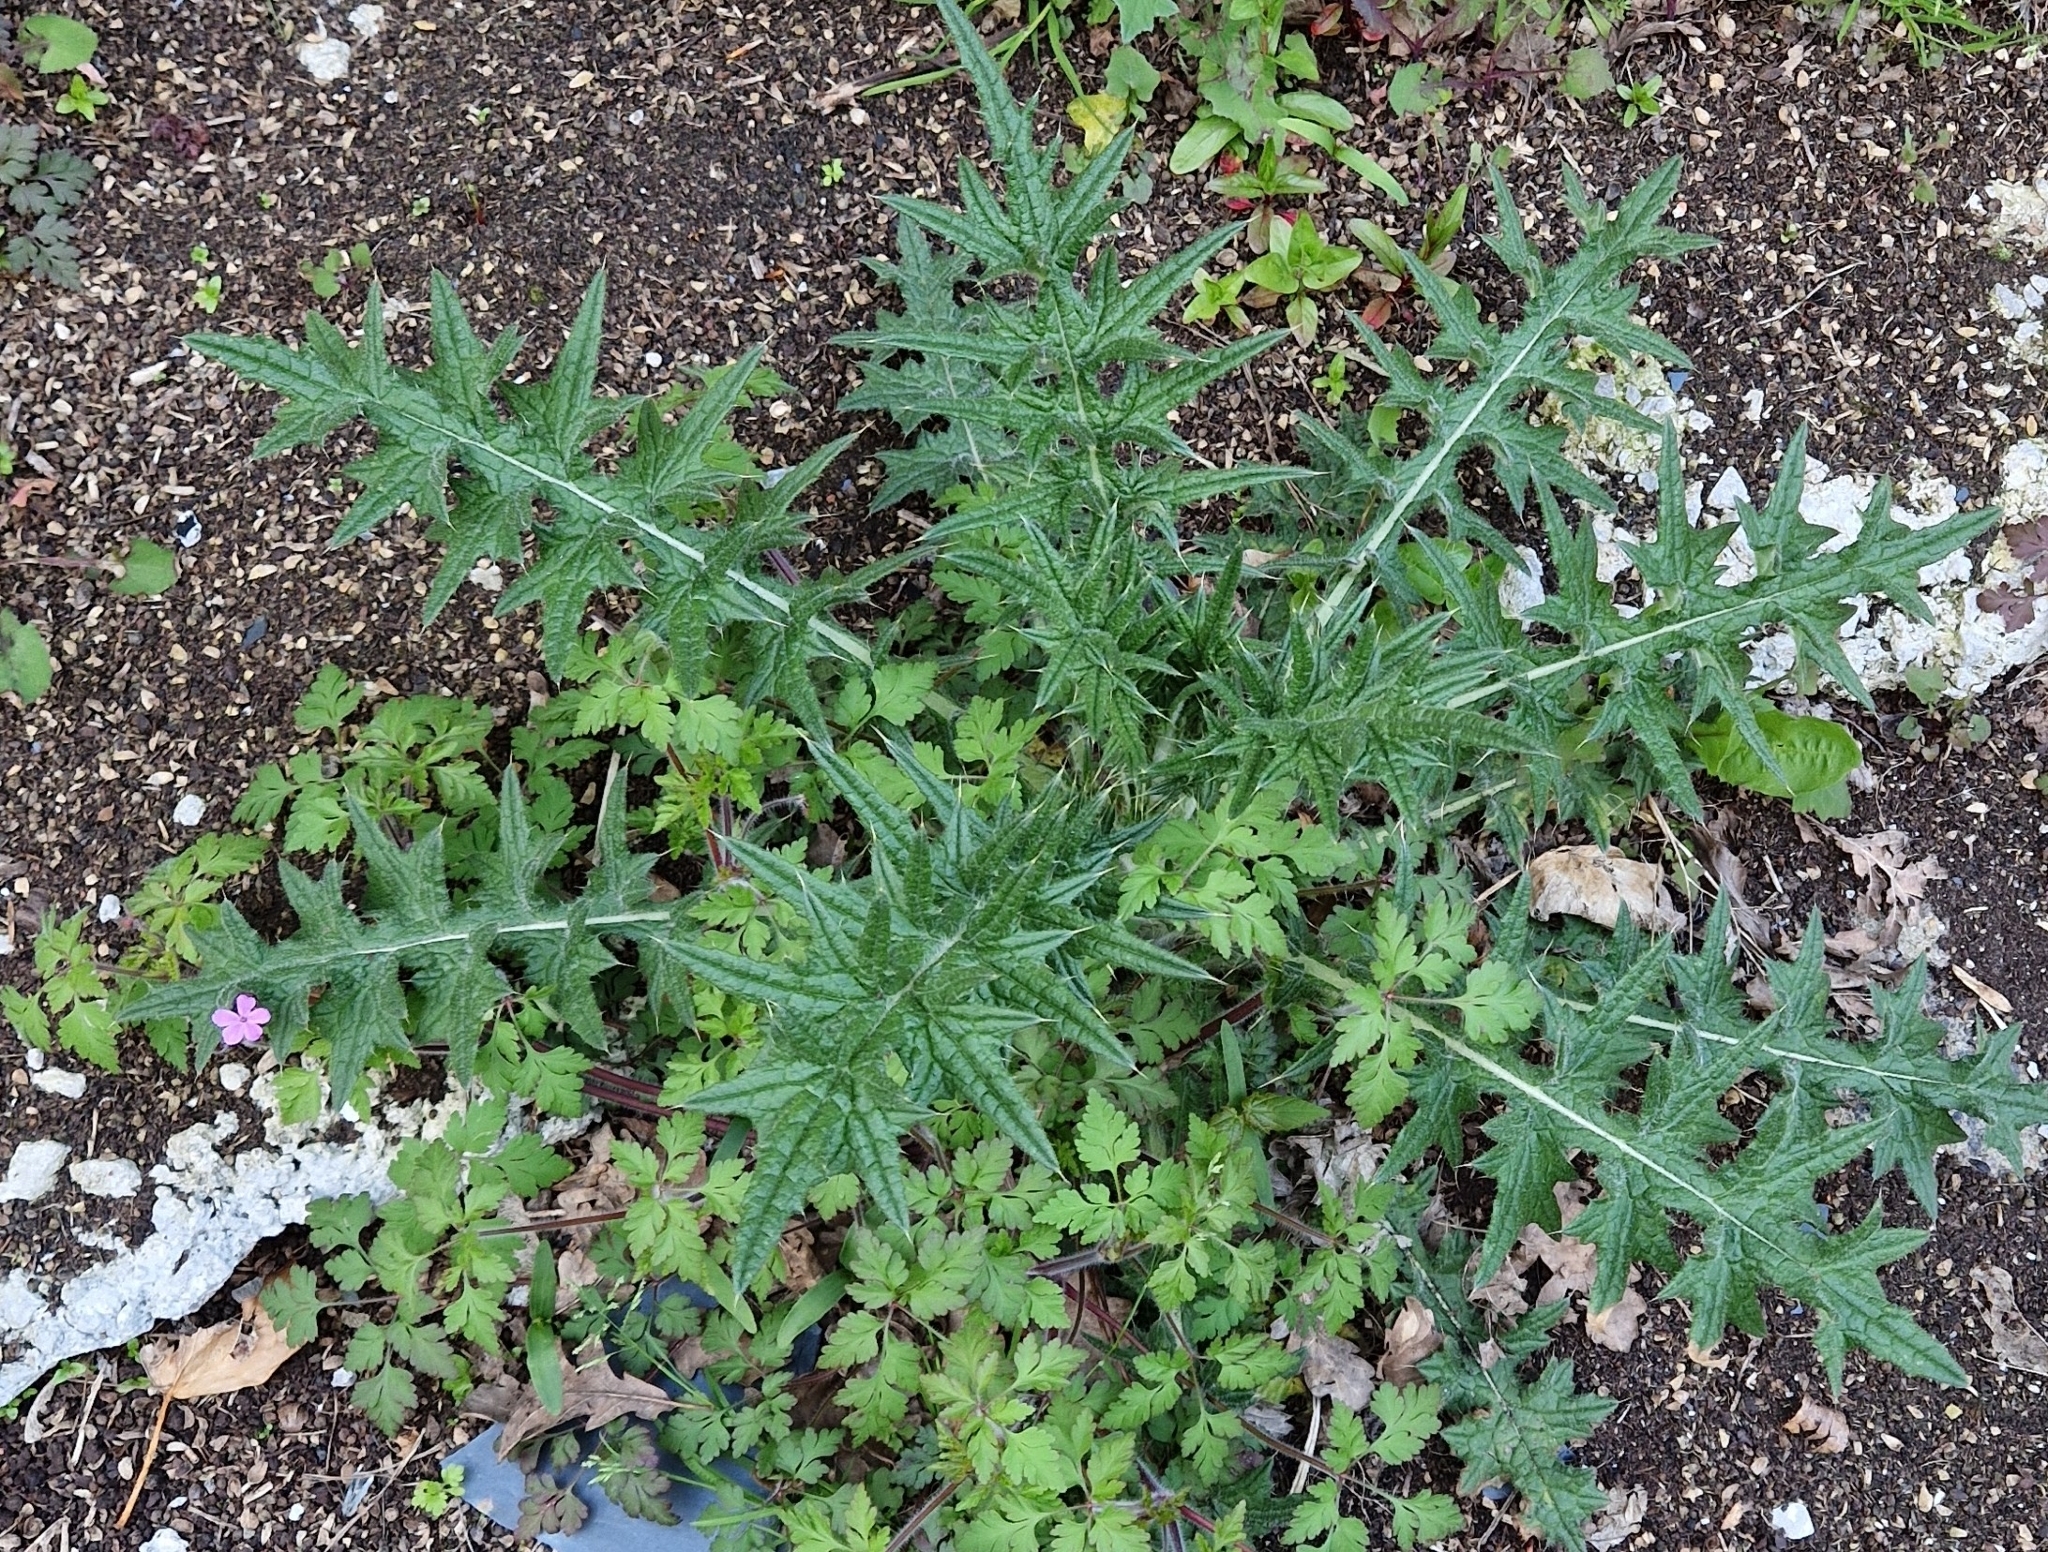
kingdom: Plantae
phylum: Tracheophyta
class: Magnoliopsida
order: Asterales
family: Asteraceae
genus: Cirsium
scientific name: Cirsium vulgare
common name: Bull thistle
